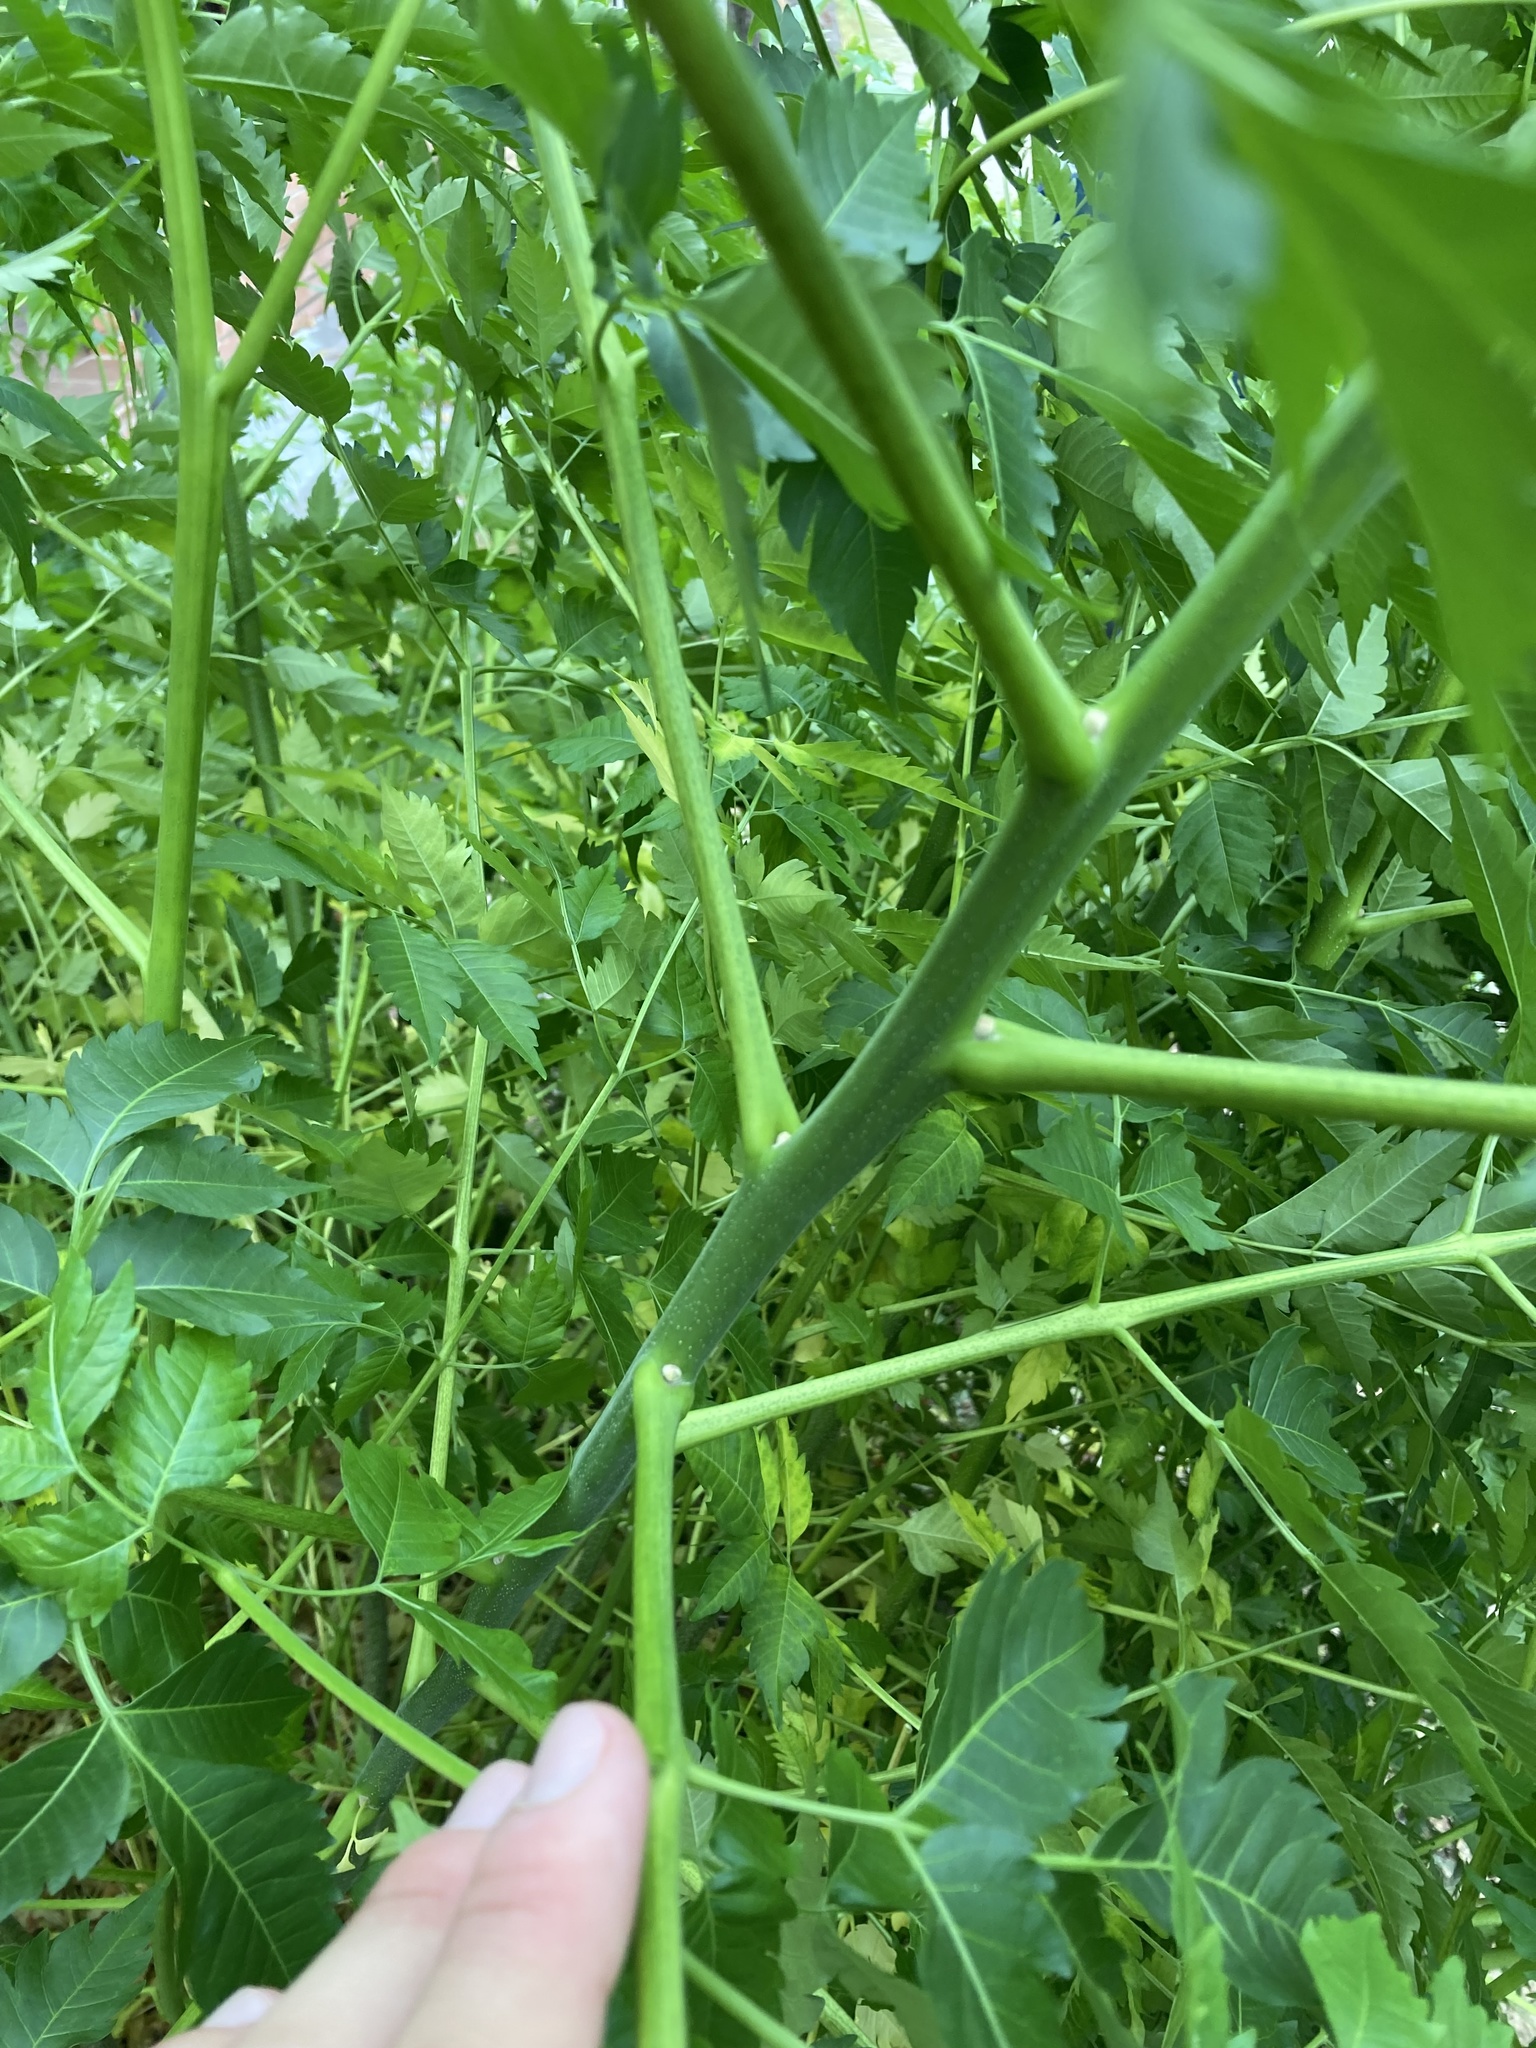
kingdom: Plantae
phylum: Tracheophyta
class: Magnoliopsida
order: Sapindales
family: Meliaceae
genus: Melia
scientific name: Melia azedarach
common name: Chinaberrytree
